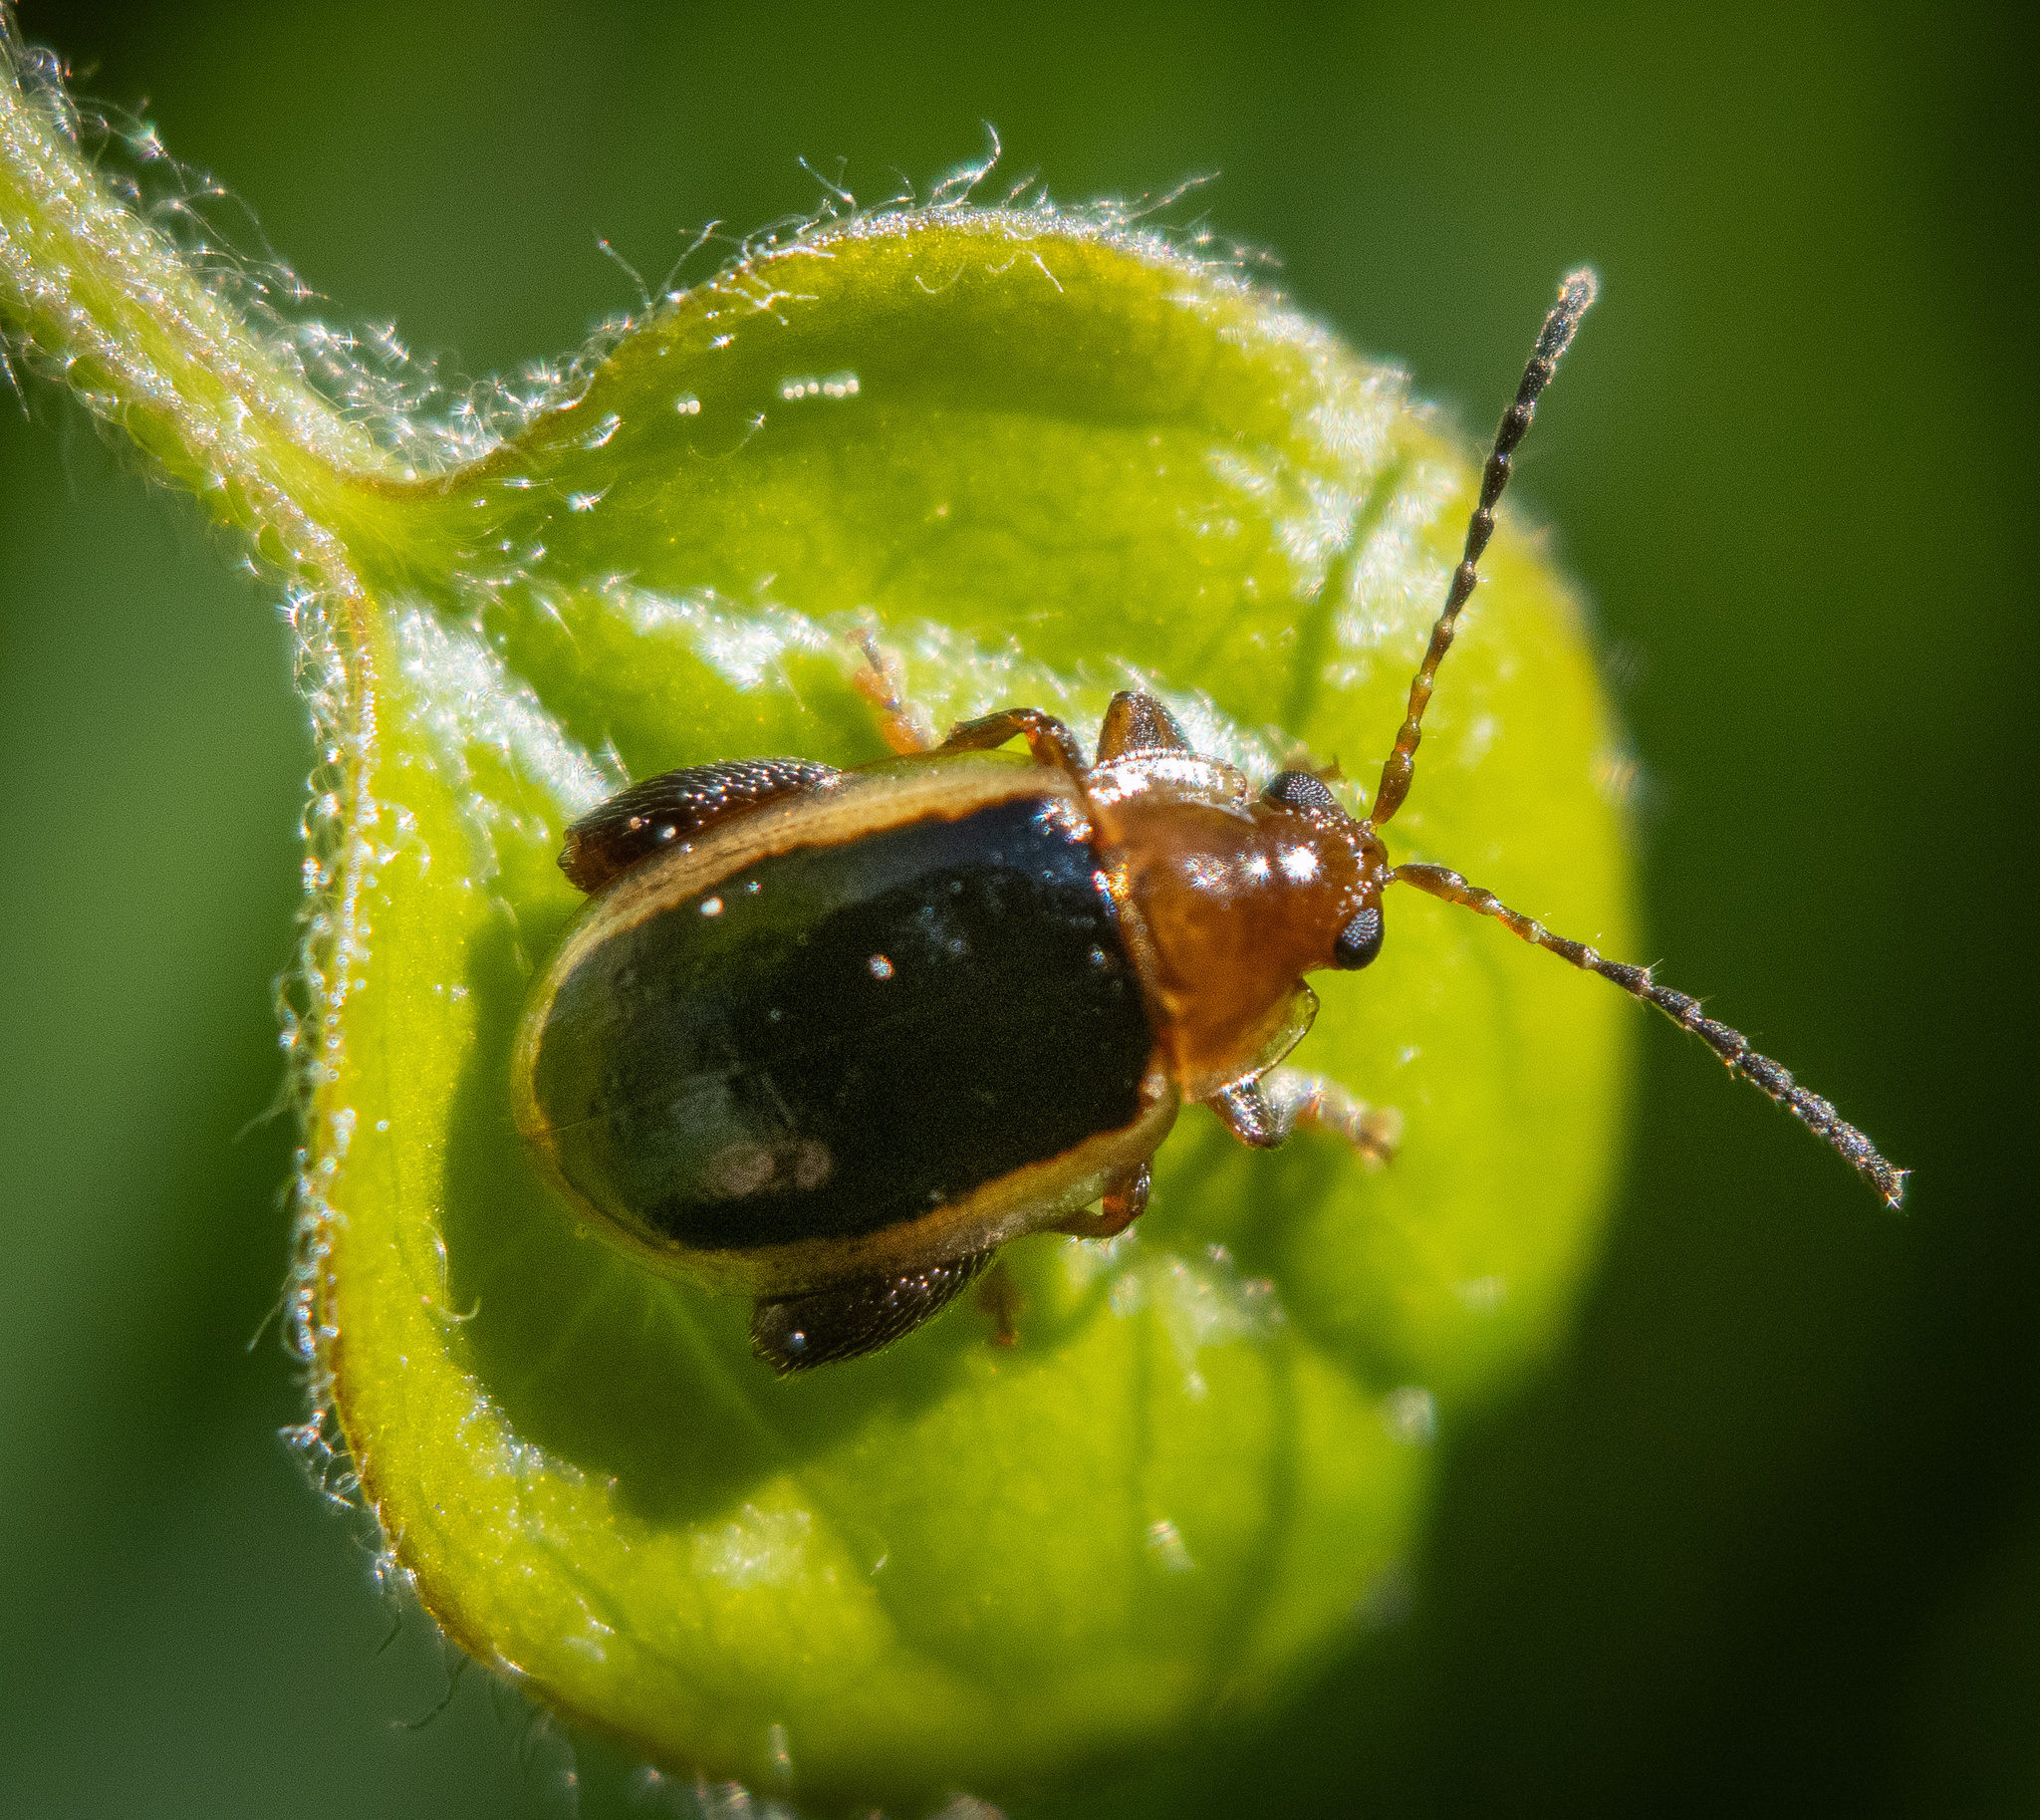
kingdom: Animalia
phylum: Arthropoda
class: Insecta
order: Coleoptera
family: Chrysomelidae
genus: Capraita
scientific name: Capraita circumdata
